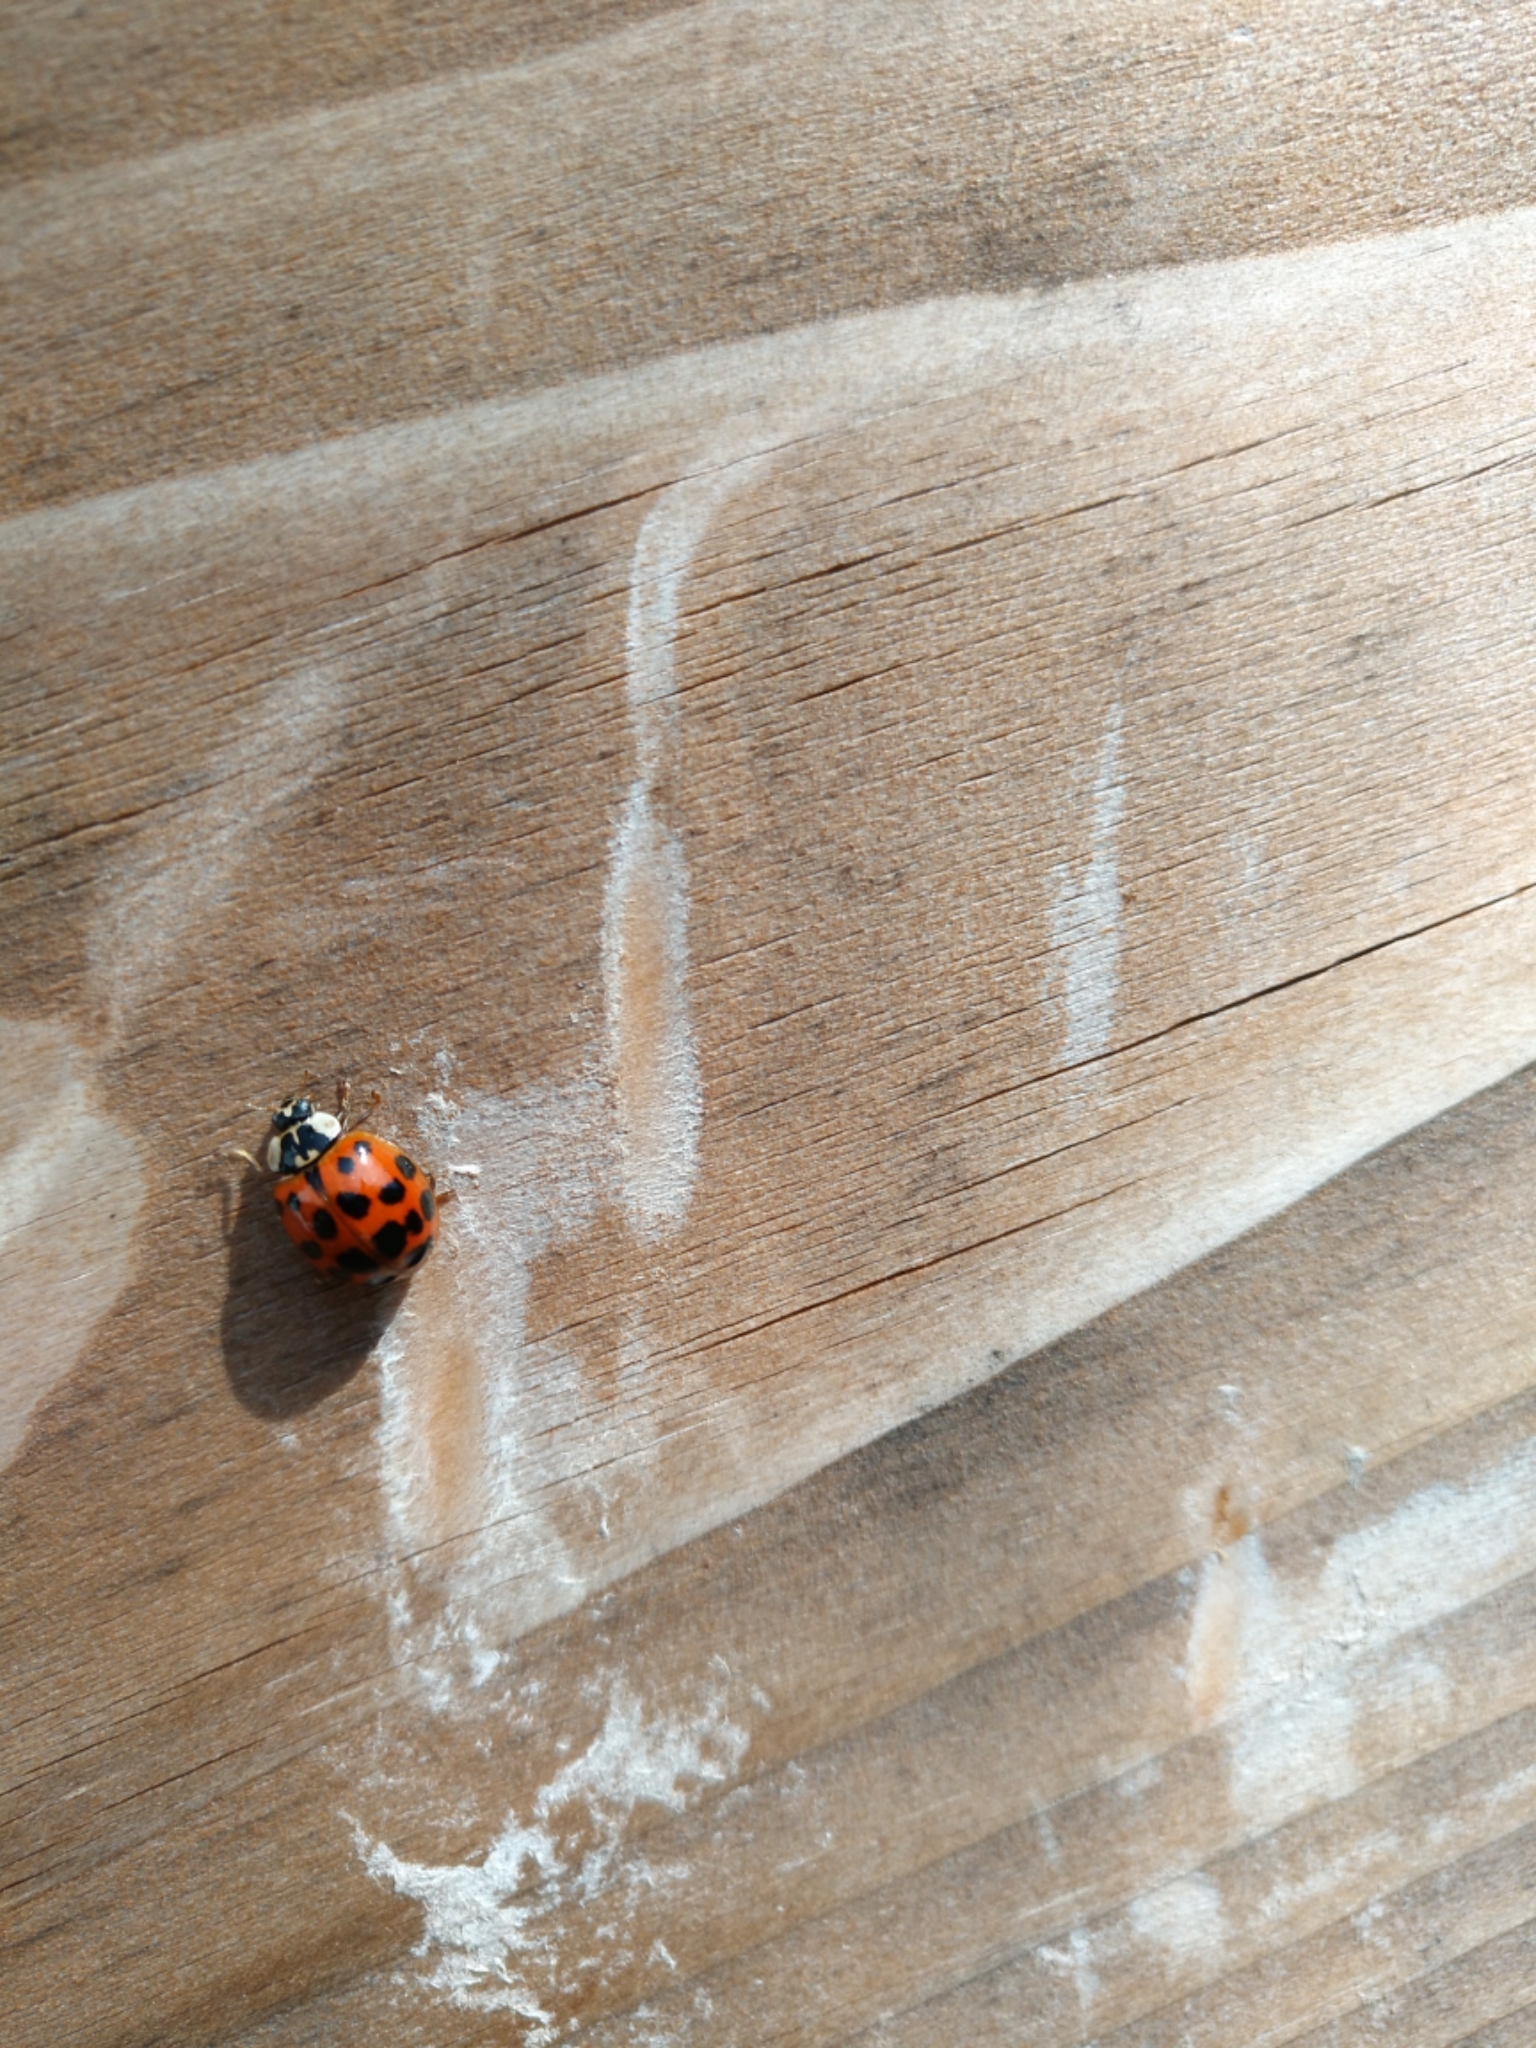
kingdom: Animalia
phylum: Arthropoda
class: Insecta
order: Coleoptera
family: Coccinellidae
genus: Harmonia
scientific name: Harmonia axyridis
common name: Harlequin ladybird
